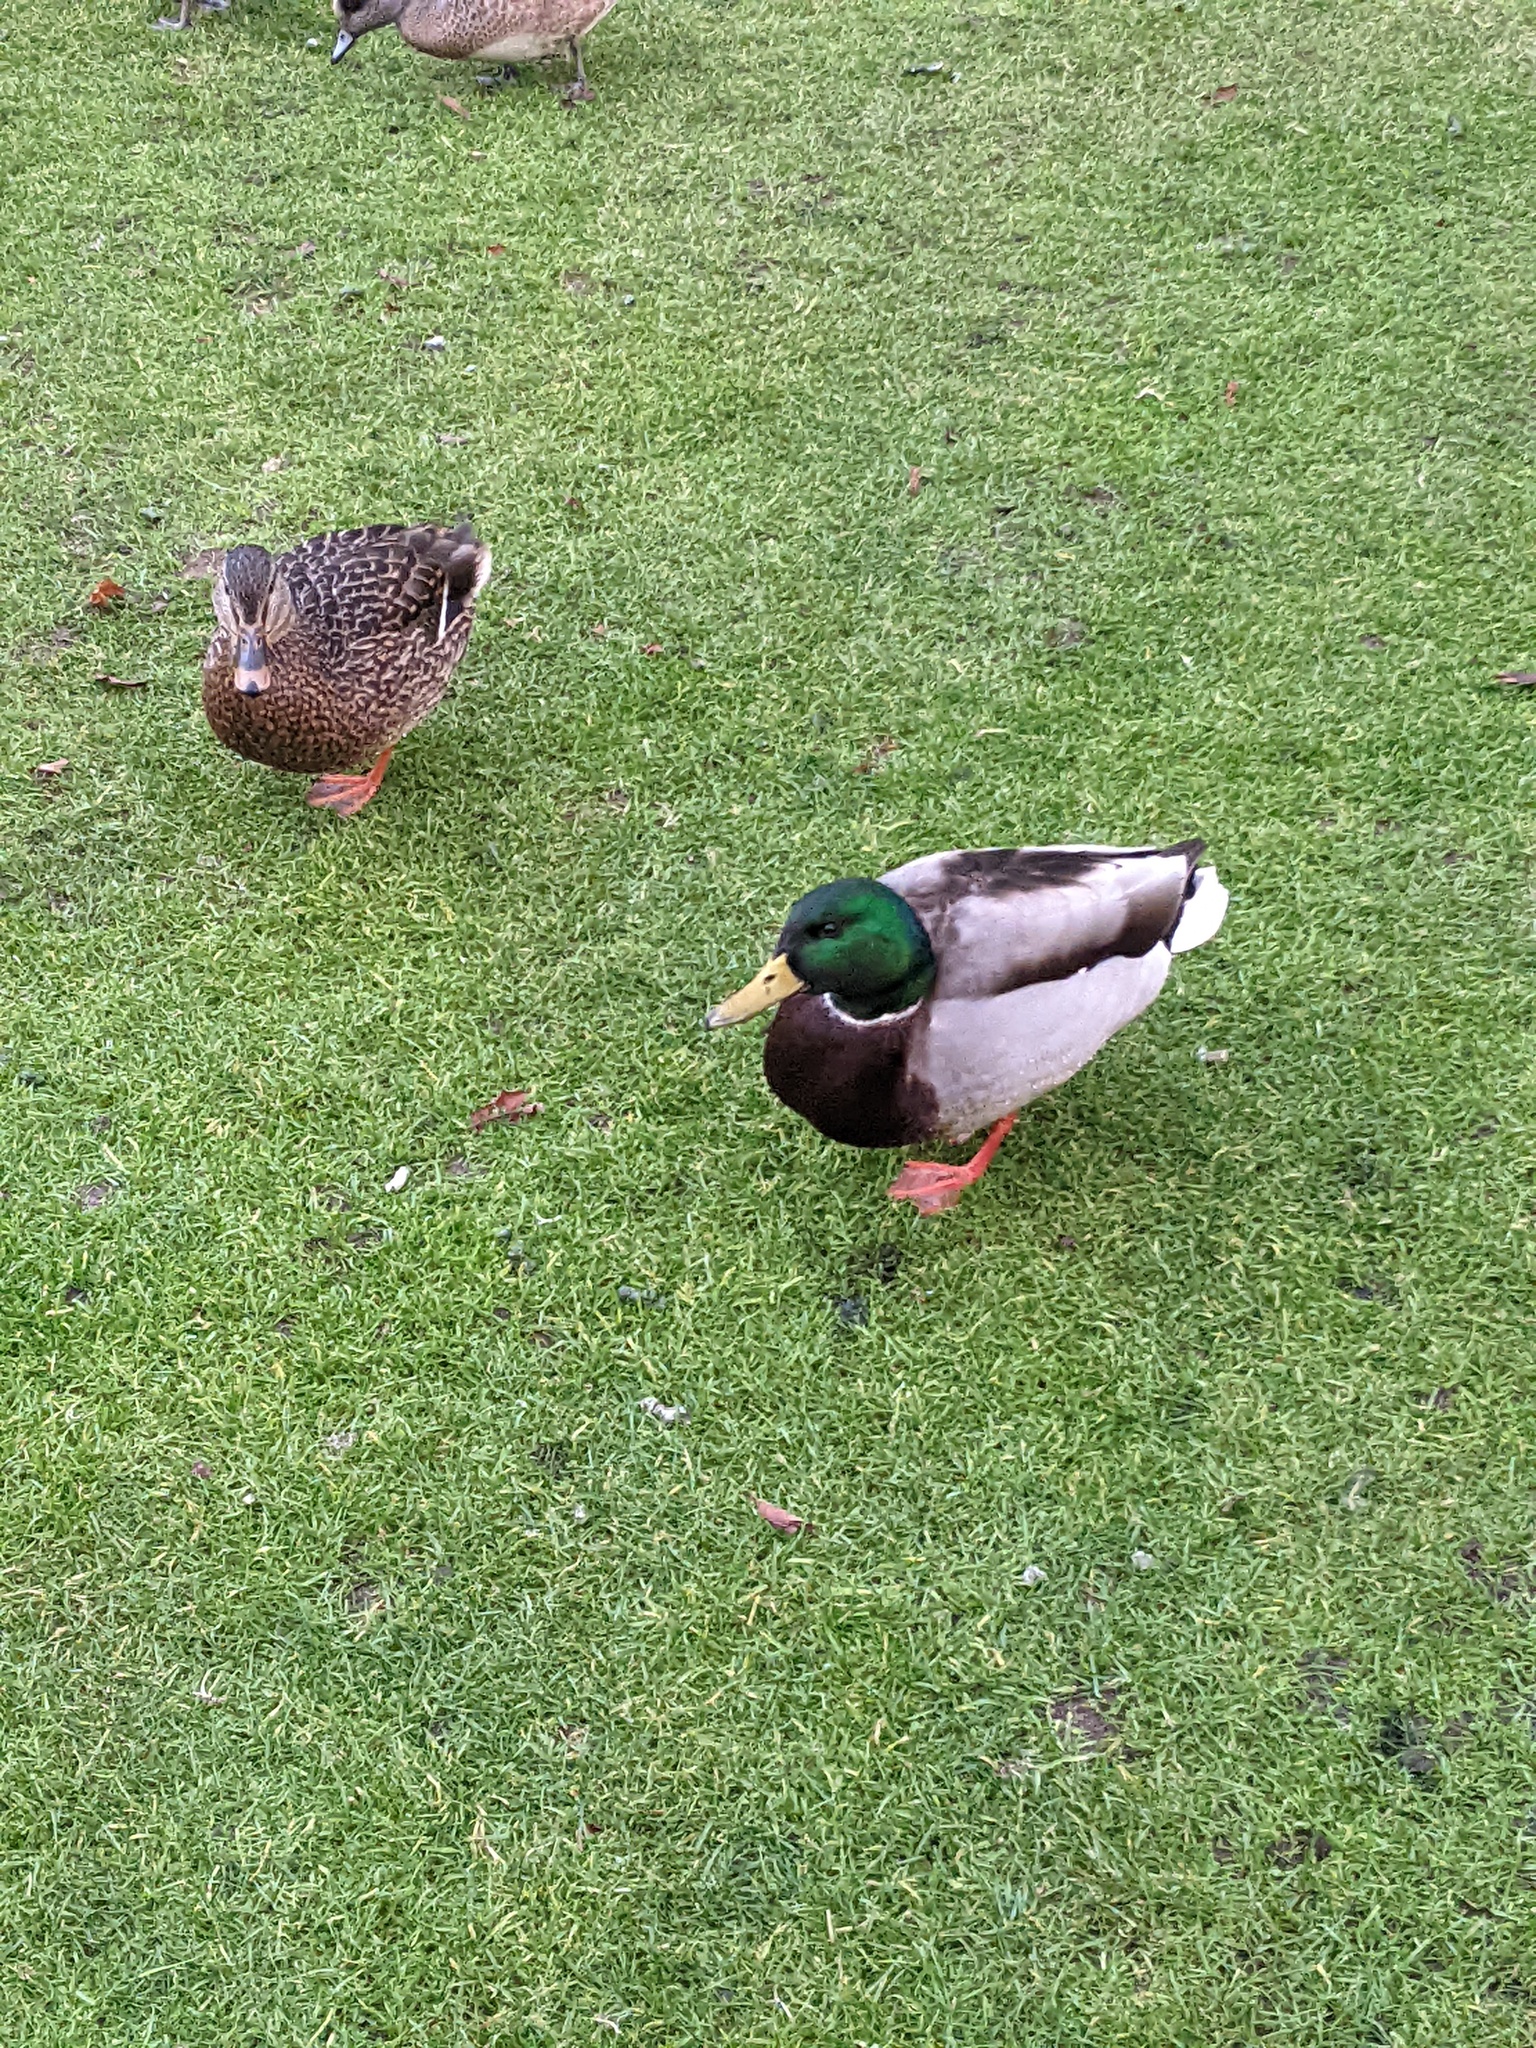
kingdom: Animalia
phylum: Chordata
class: Aves
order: Anseriformes
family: Anatidae
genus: Anas
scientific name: Anas platyrhynchos
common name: Mallard
